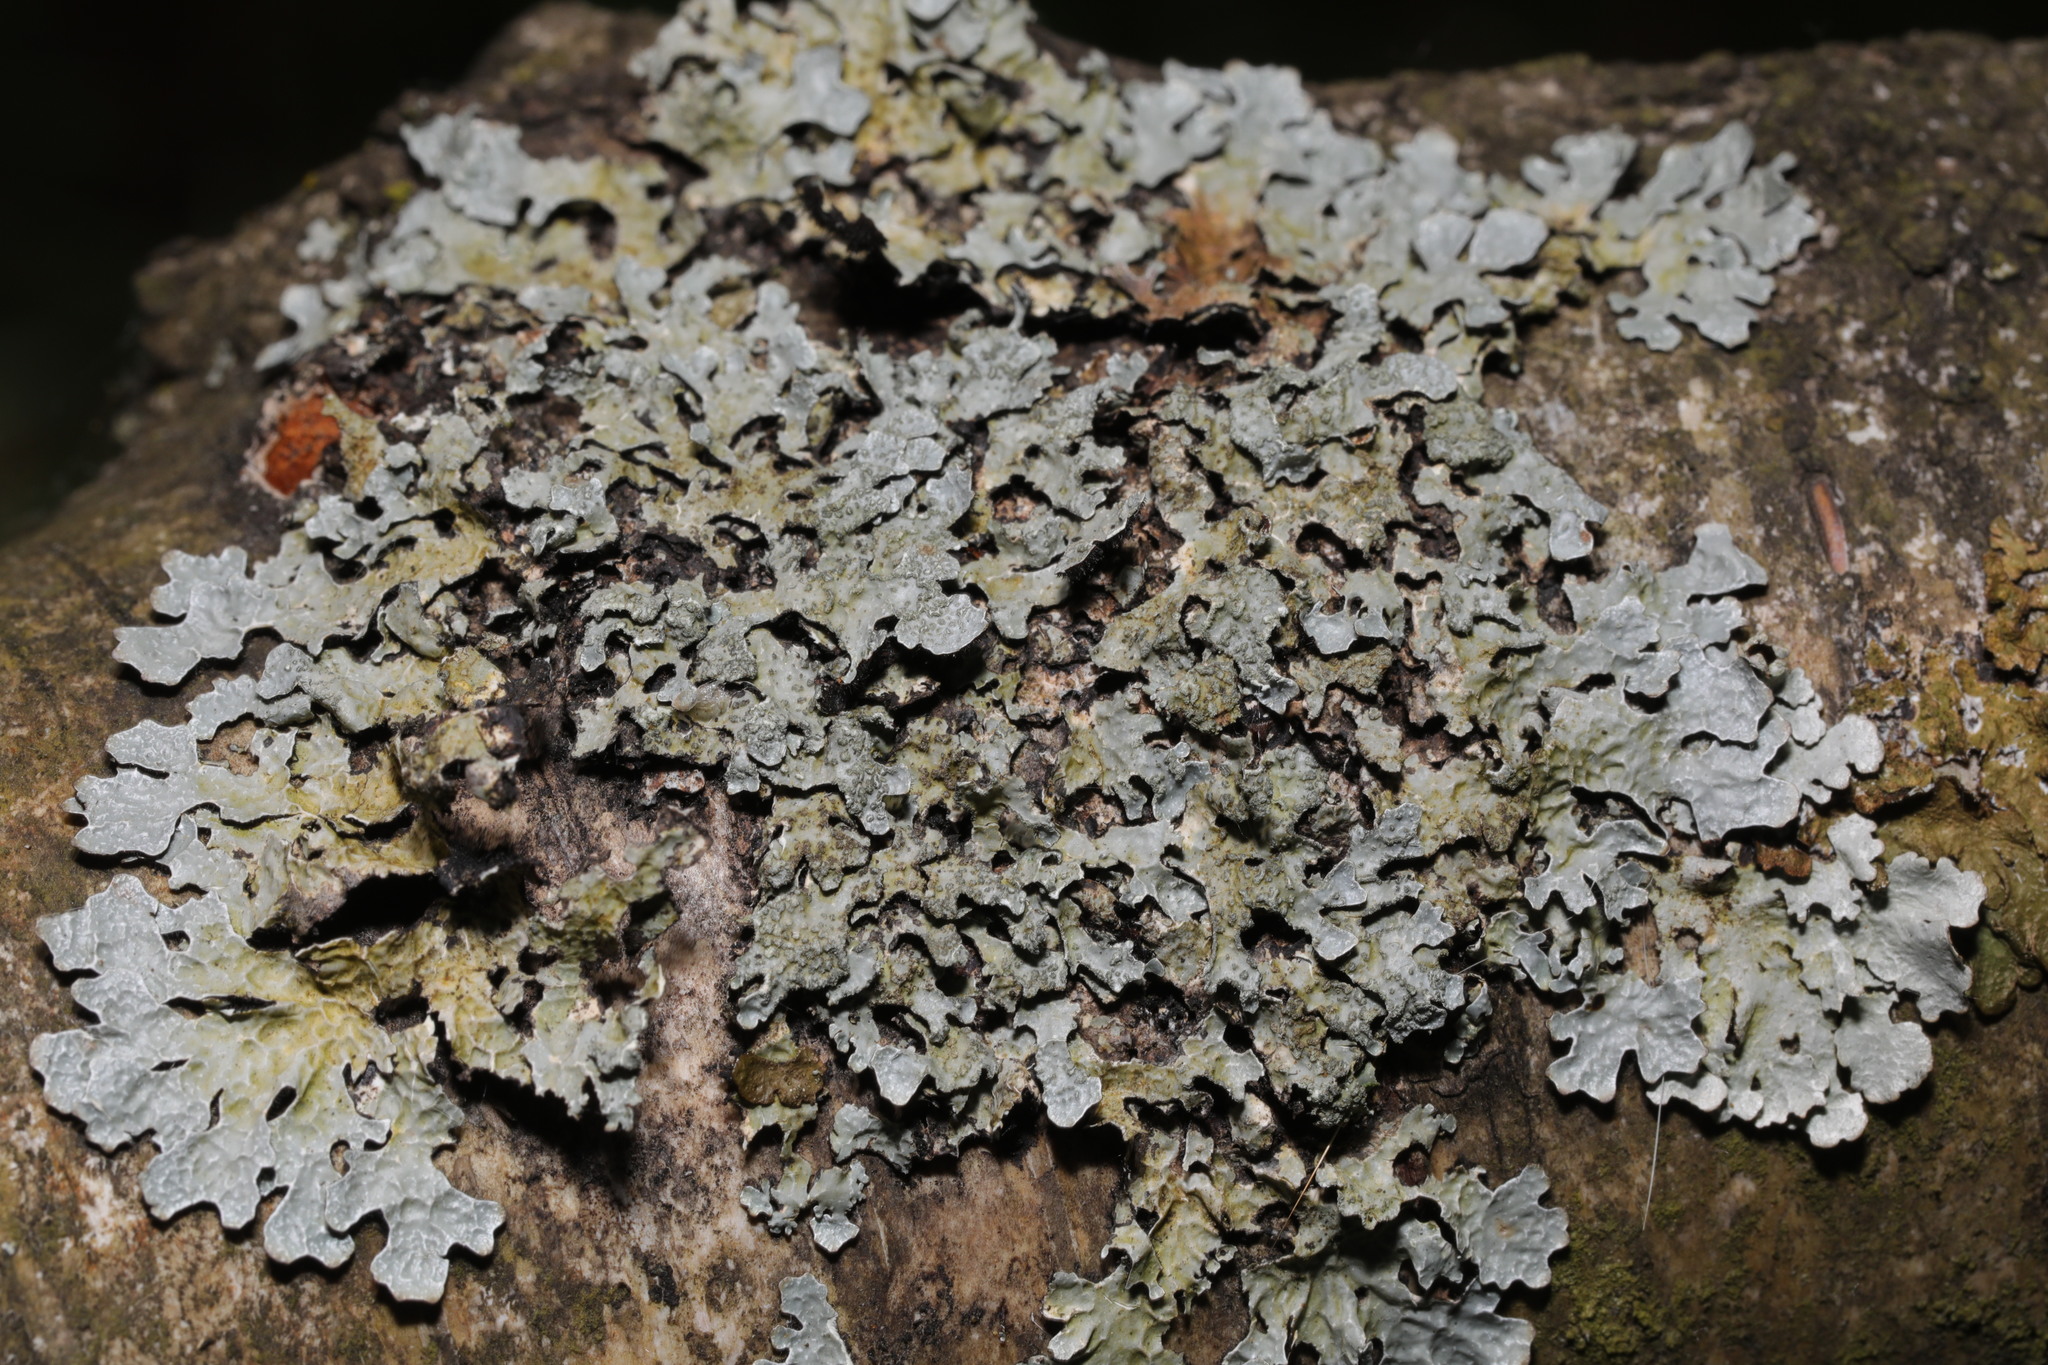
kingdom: Fungi
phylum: Ascomycota
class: Lecanoromycetes
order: Lecanorales
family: Parmeliaceae
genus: Parmelia
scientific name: Parmelia sulcata
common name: Netted shield lichen
